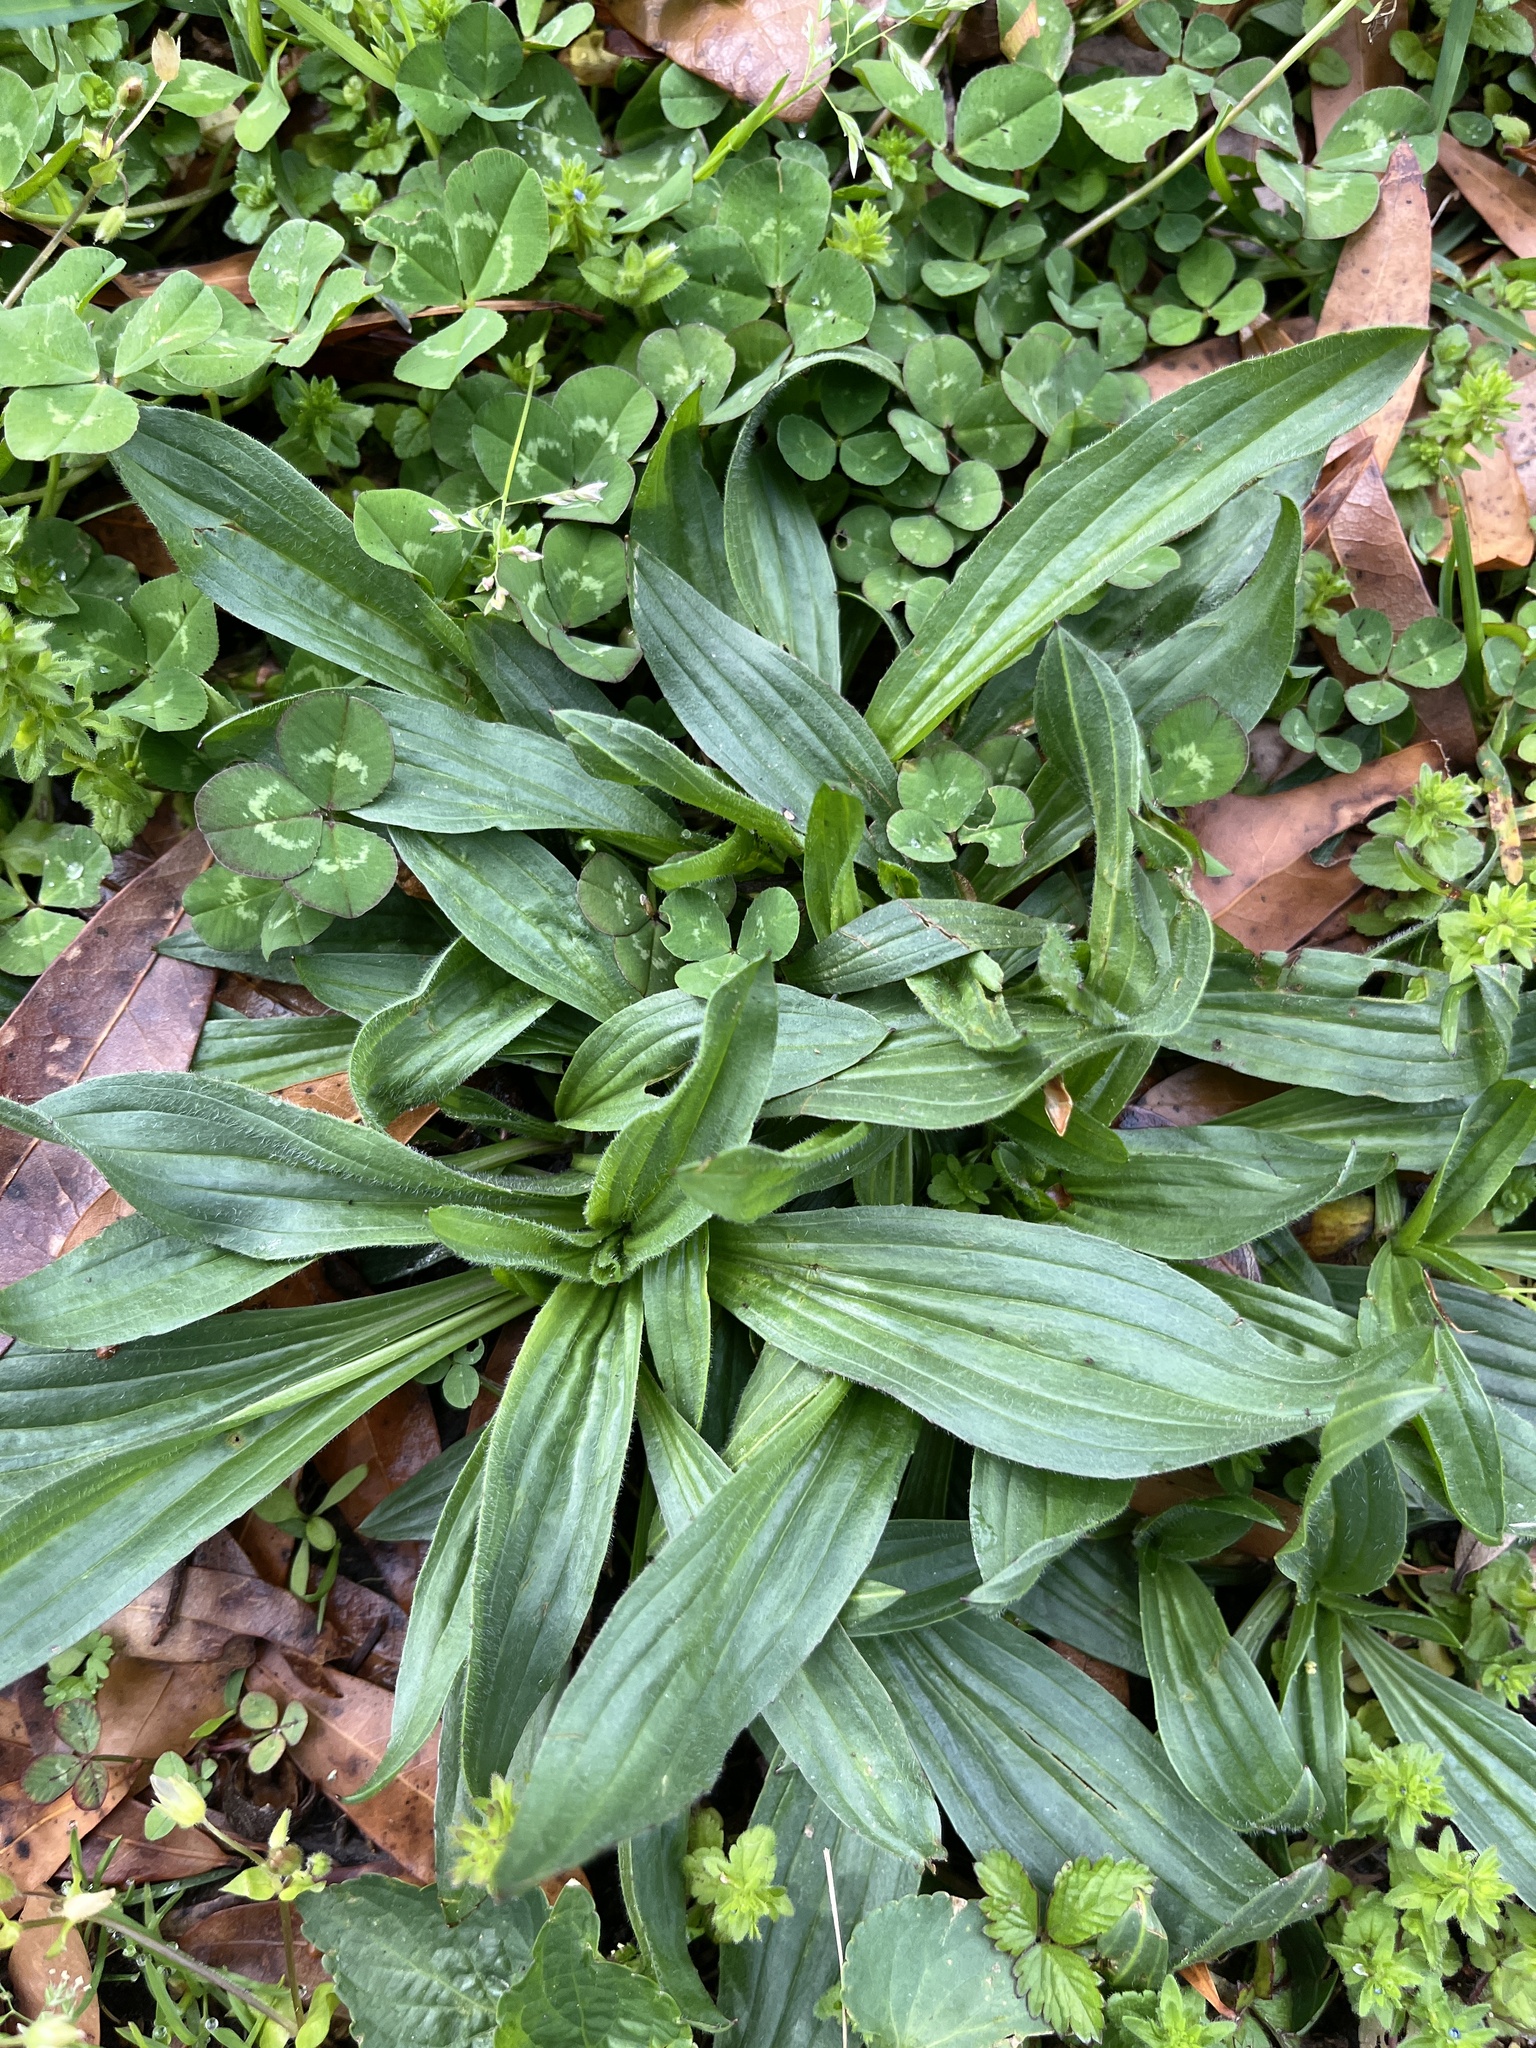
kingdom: Plantae
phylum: Tracheophyta
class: Magnoliopsida
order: Lamiales
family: Plantaginaceae
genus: Plantago
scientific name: Plantago lanceolata
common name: Ribwort plantain
